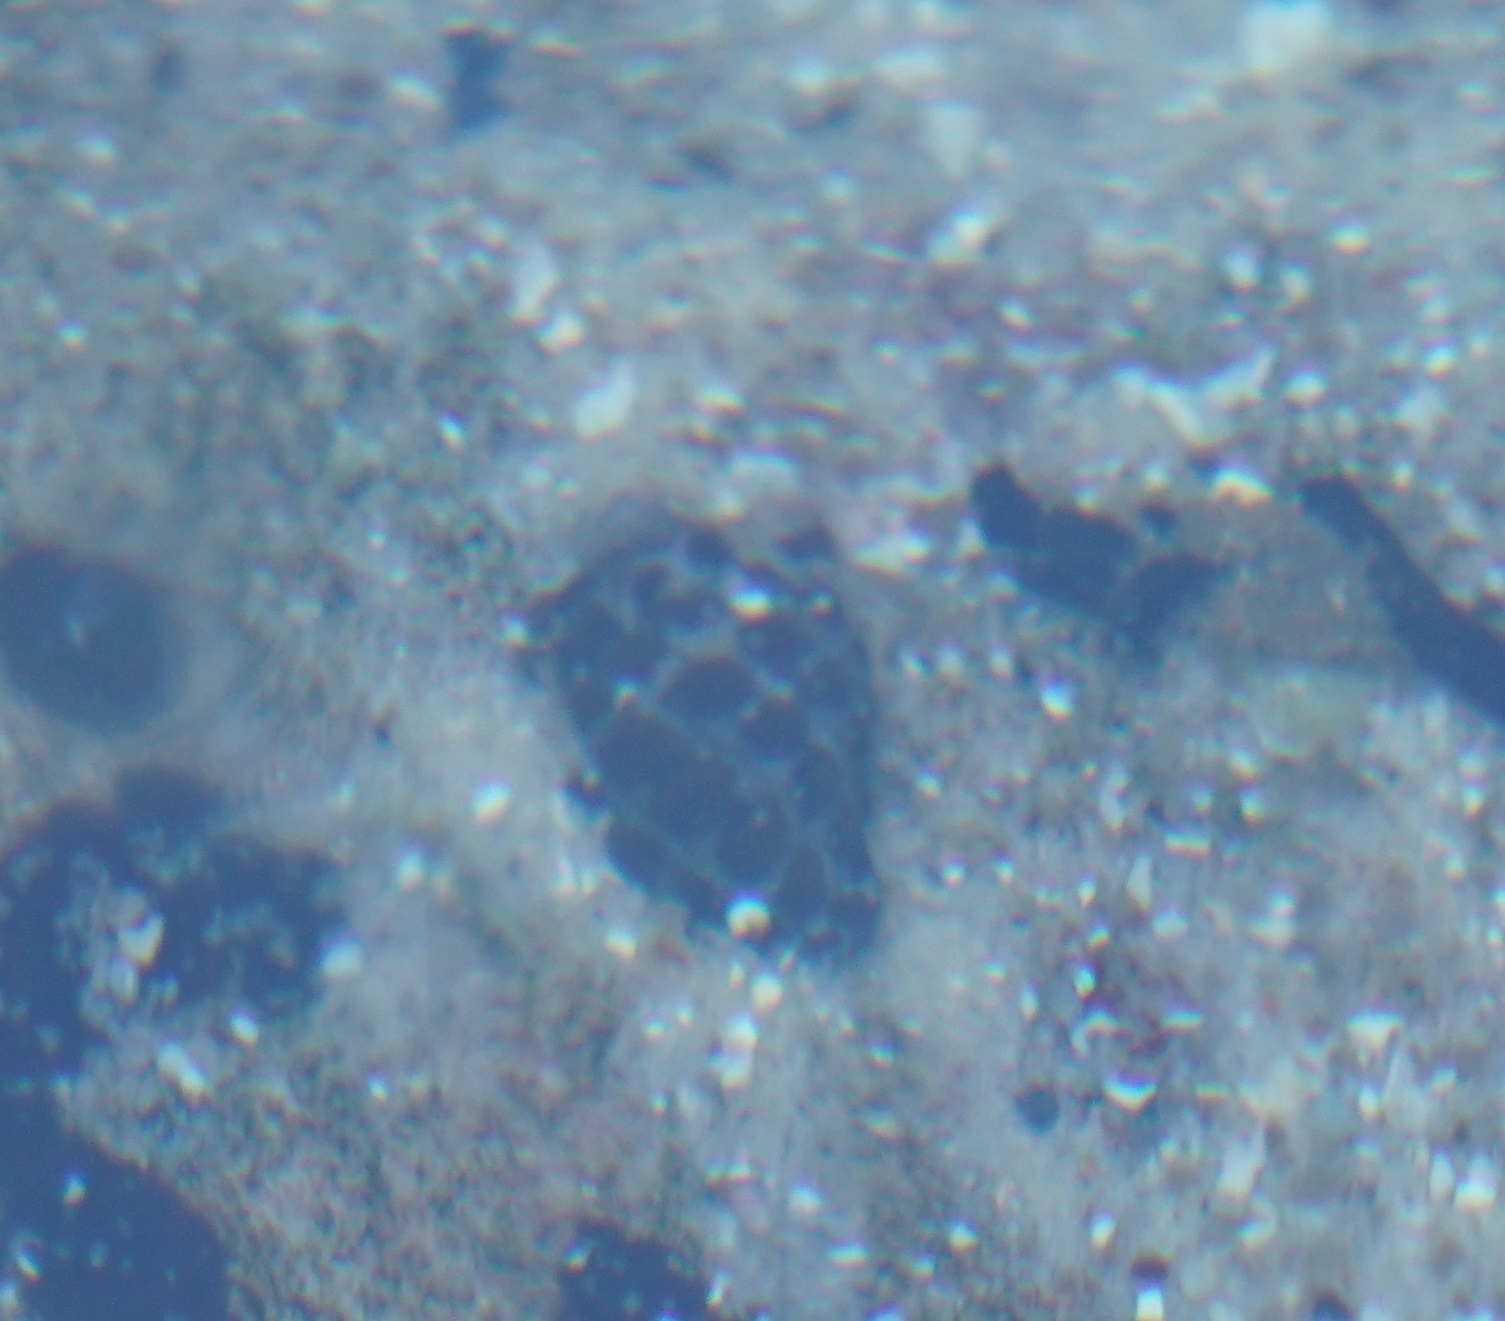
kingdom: Animalia
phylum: Mollusca
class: Gastropoda
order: Neogastropoda
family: Muricidae
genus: Tenguella
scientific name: Tenguella marginalba
